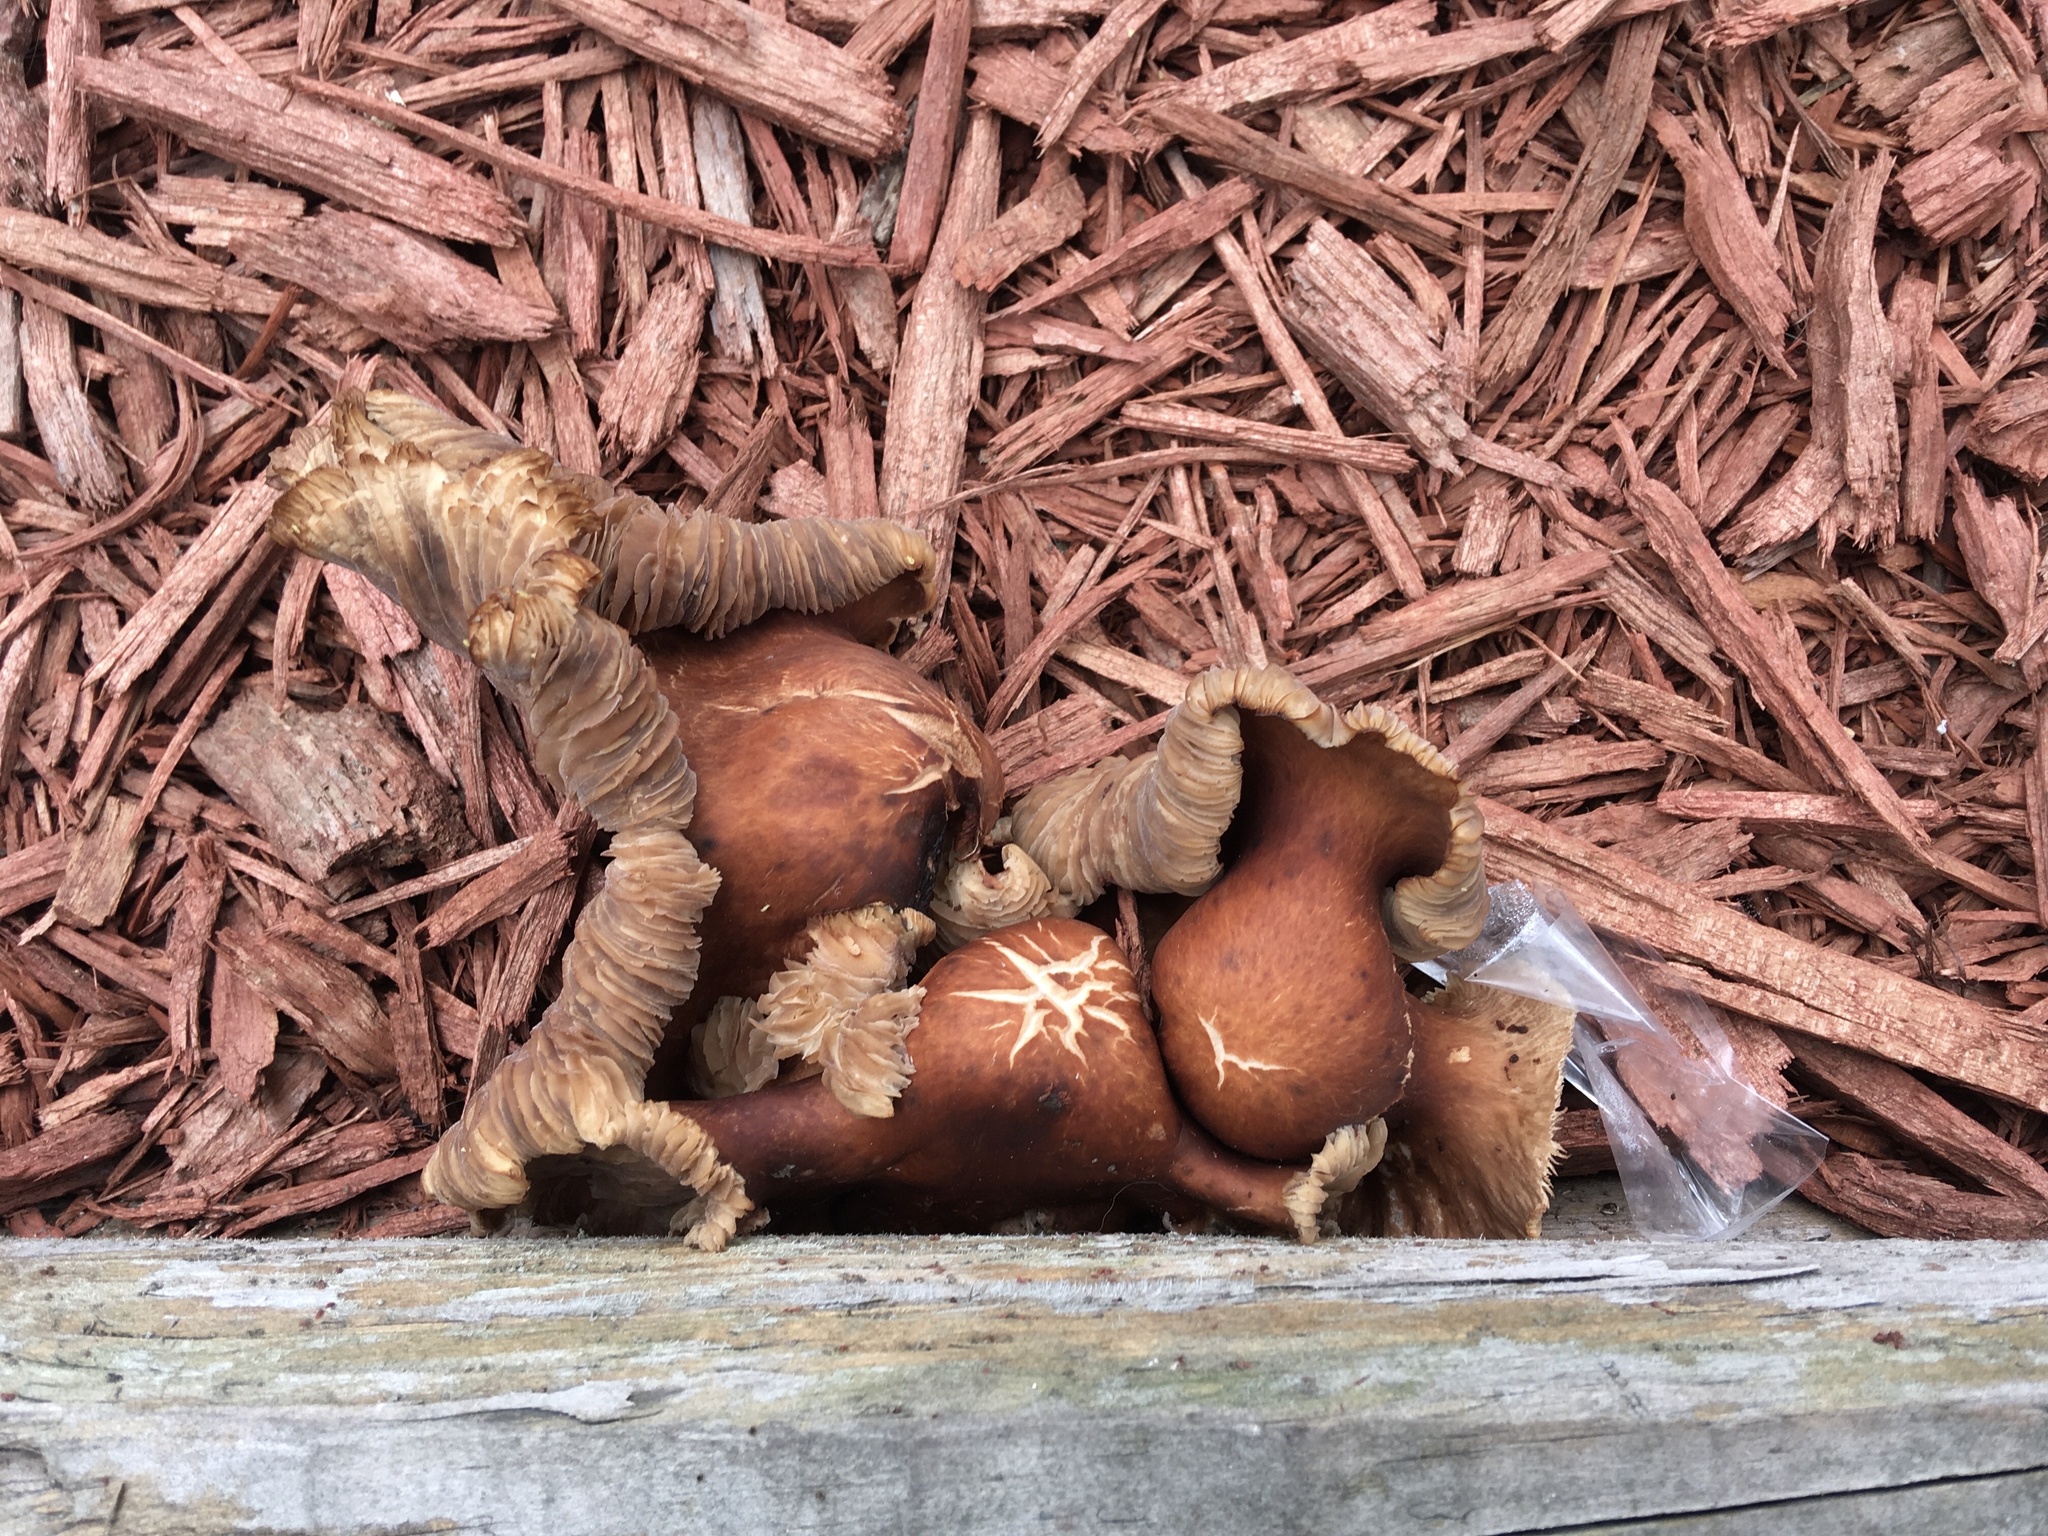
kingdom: Fungi
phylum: Basidiomycota
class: Agaricomycetes
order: Agaricales
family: Omphalotaceae
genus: Collybiopsis
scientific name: Collybiopsis luxurians
